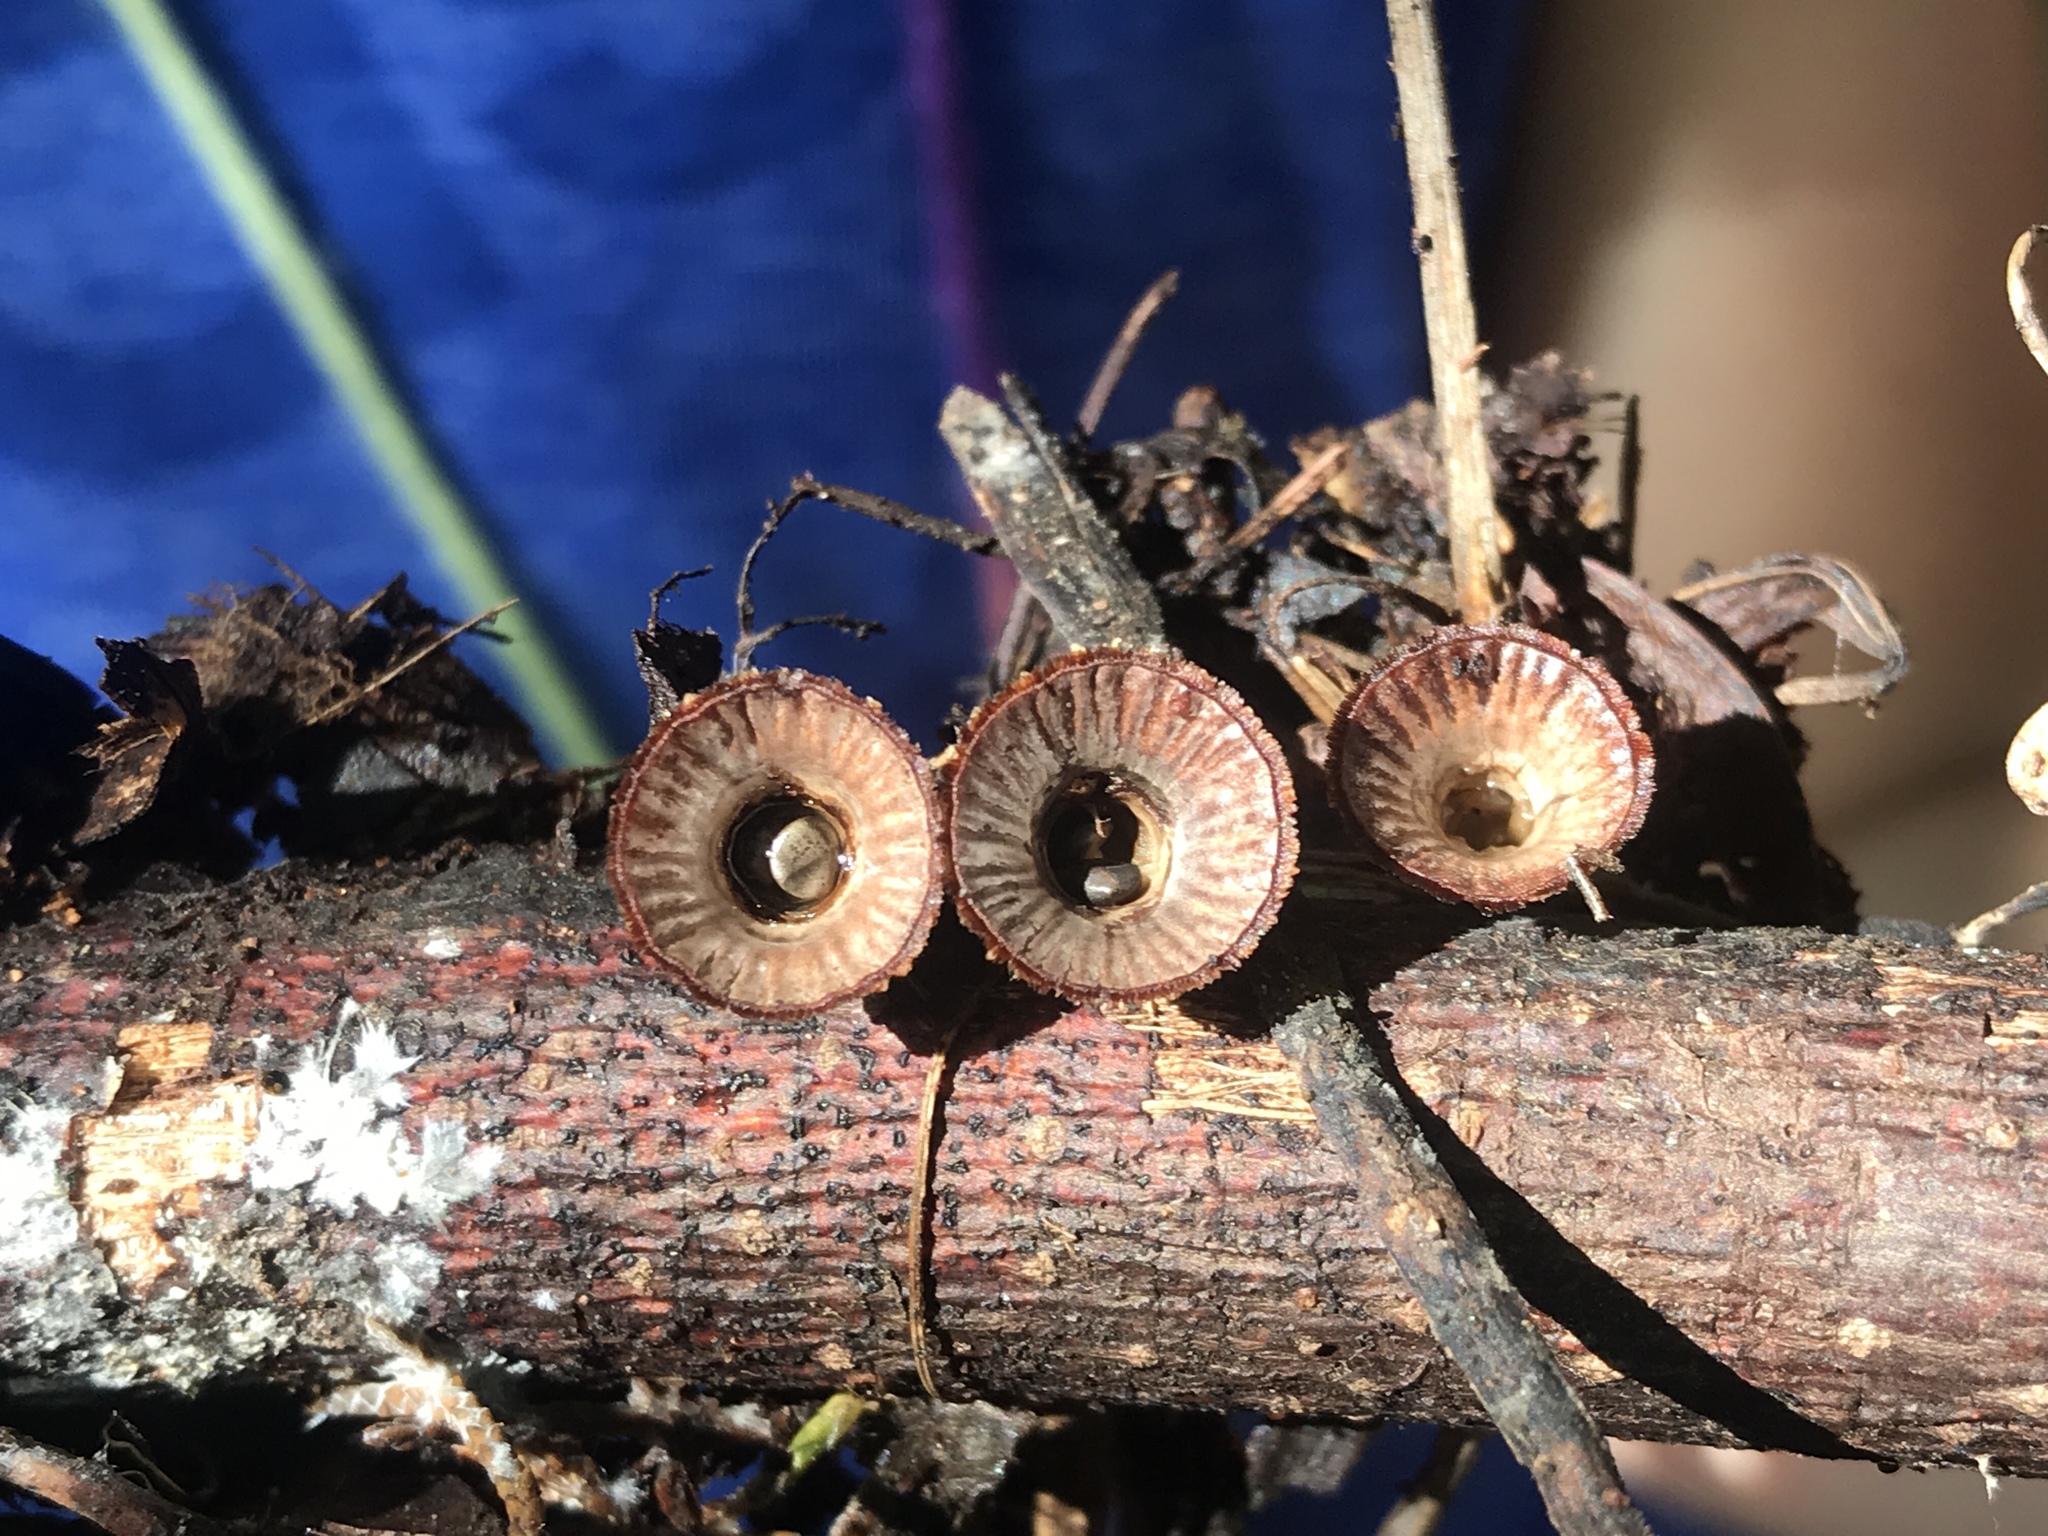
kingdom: Fungi
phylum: Basidiomycota
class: Agaricomycetes
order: Agaricales
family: Agaricaceae
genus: Cyathus
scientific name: Cyathus striatus
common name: Fluted bird's nest
